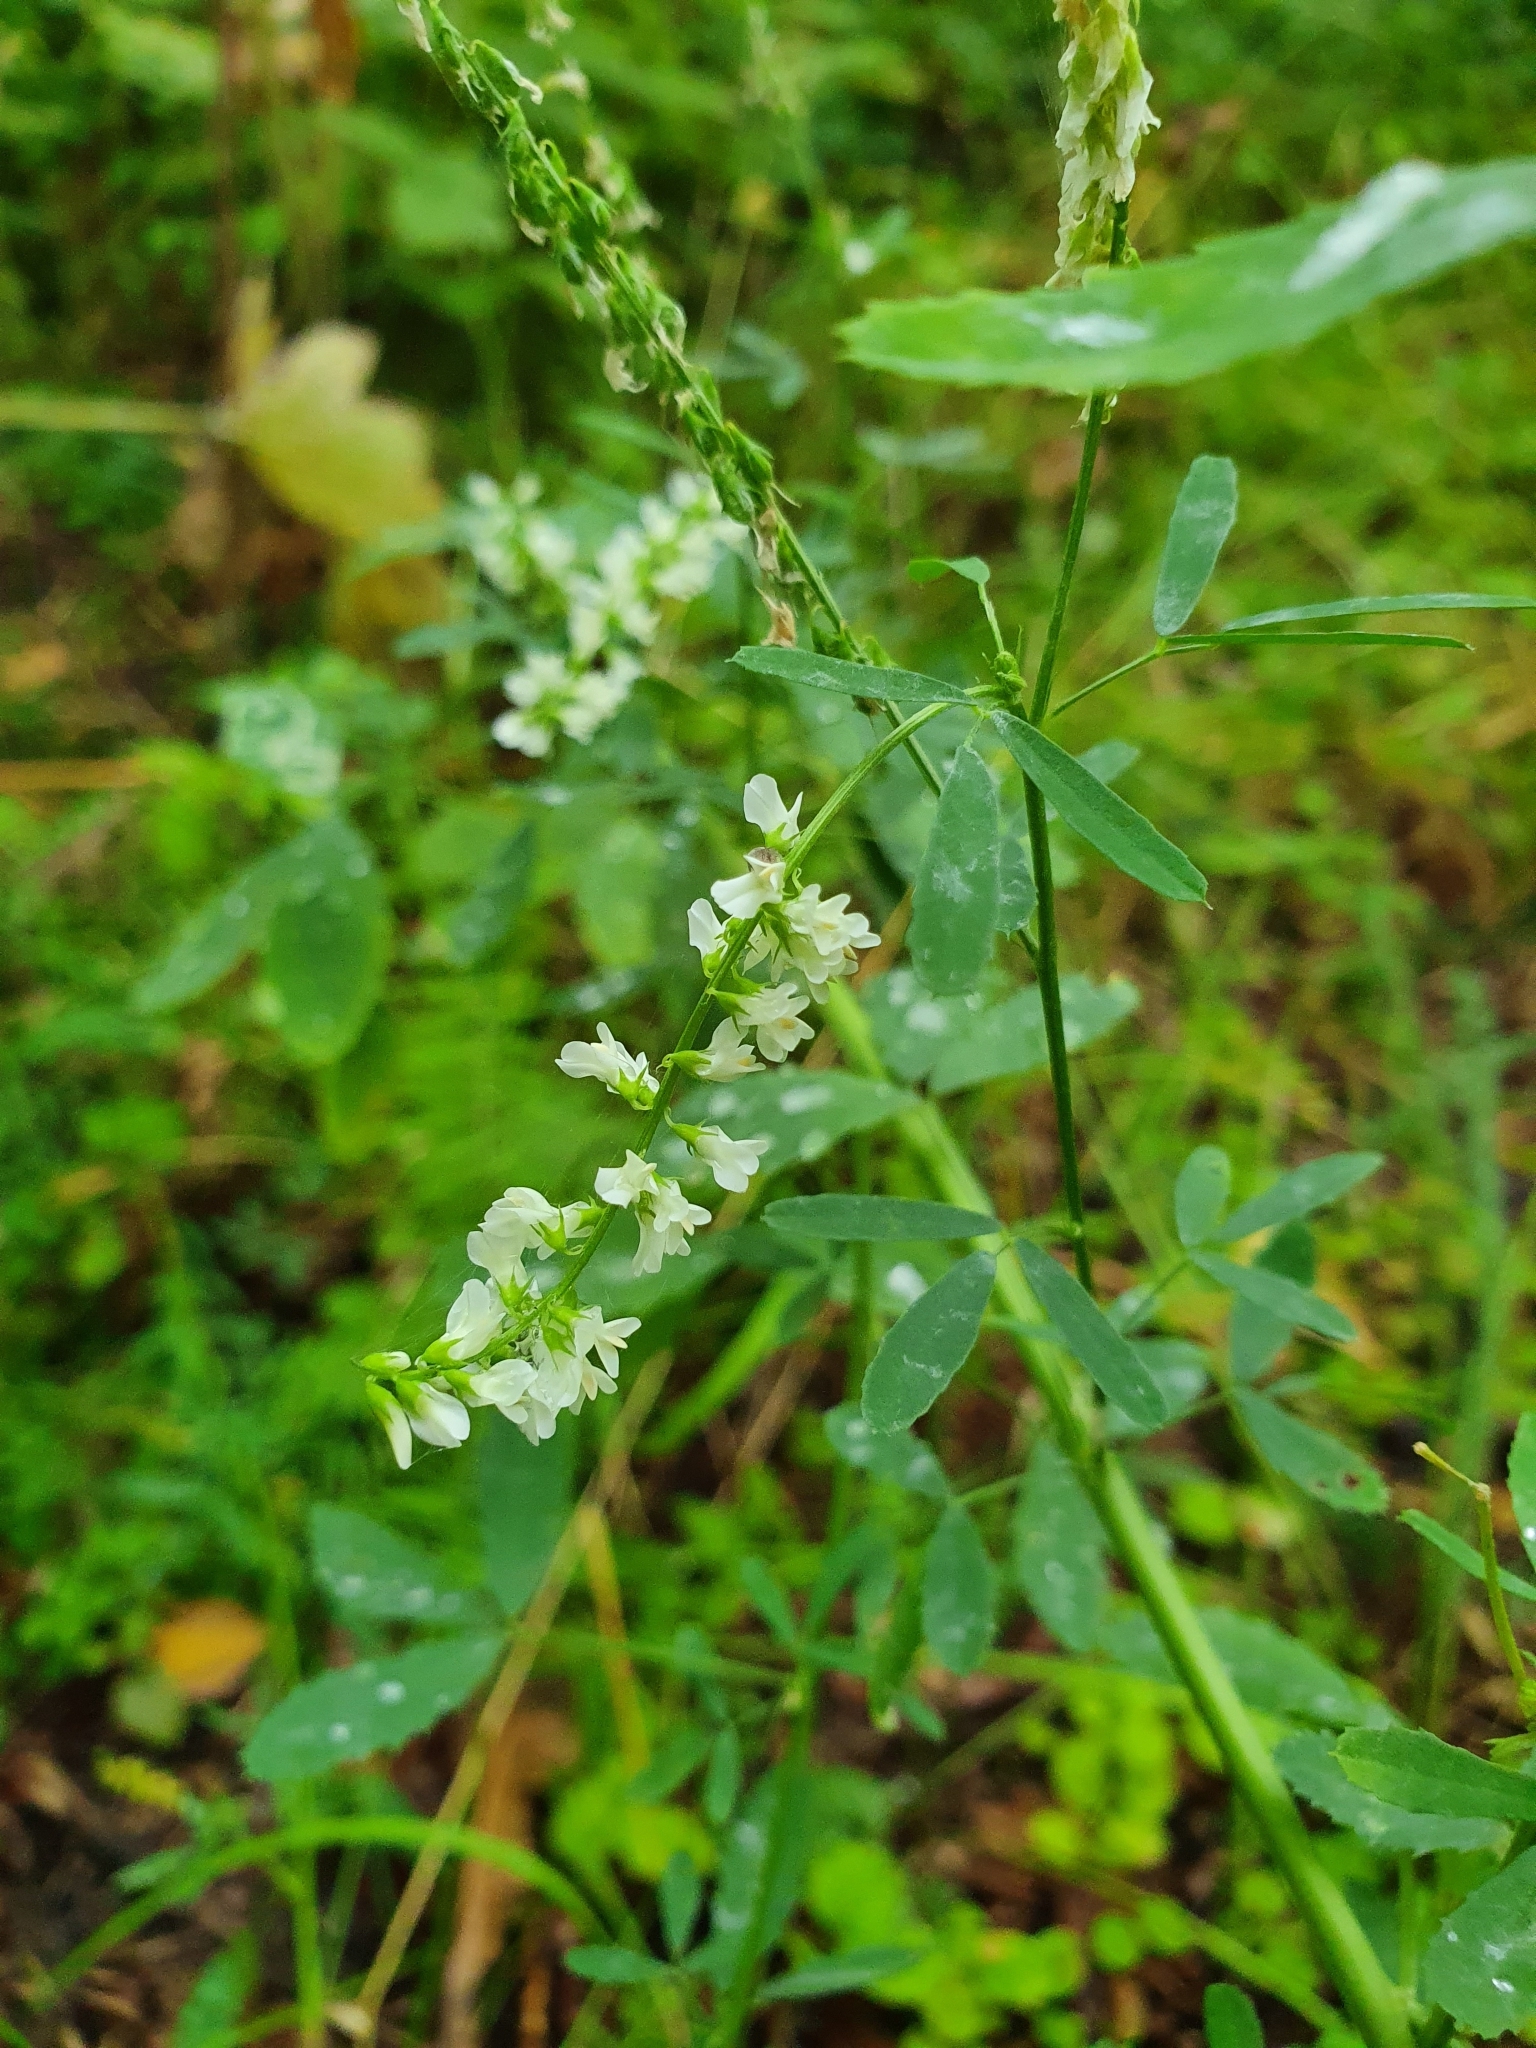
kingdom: Plantae
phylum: Tracheophyta
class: Magnoliopsida
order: Fabales
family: Fabaceae
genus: Melilotus
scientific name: Melilotus albus
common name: White melilot
